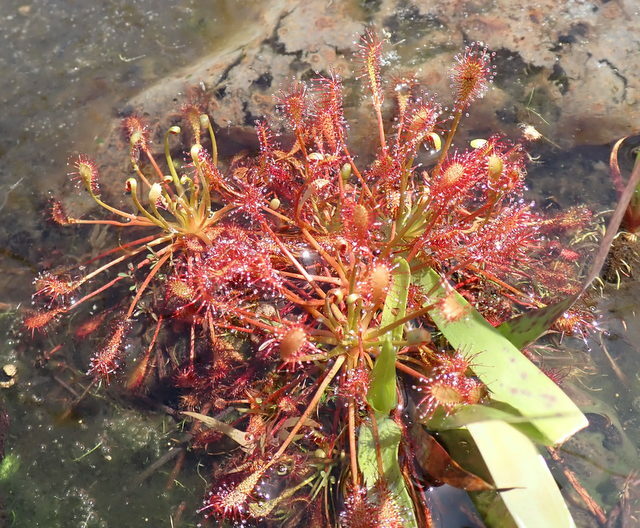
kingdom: Plantae
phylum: Tracheophyta
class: Magnoliopsida
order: Caryophyllales
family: Droseraceae
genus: Drosera
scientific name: Drosera intermedia
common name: Oblong-leaved sundew
